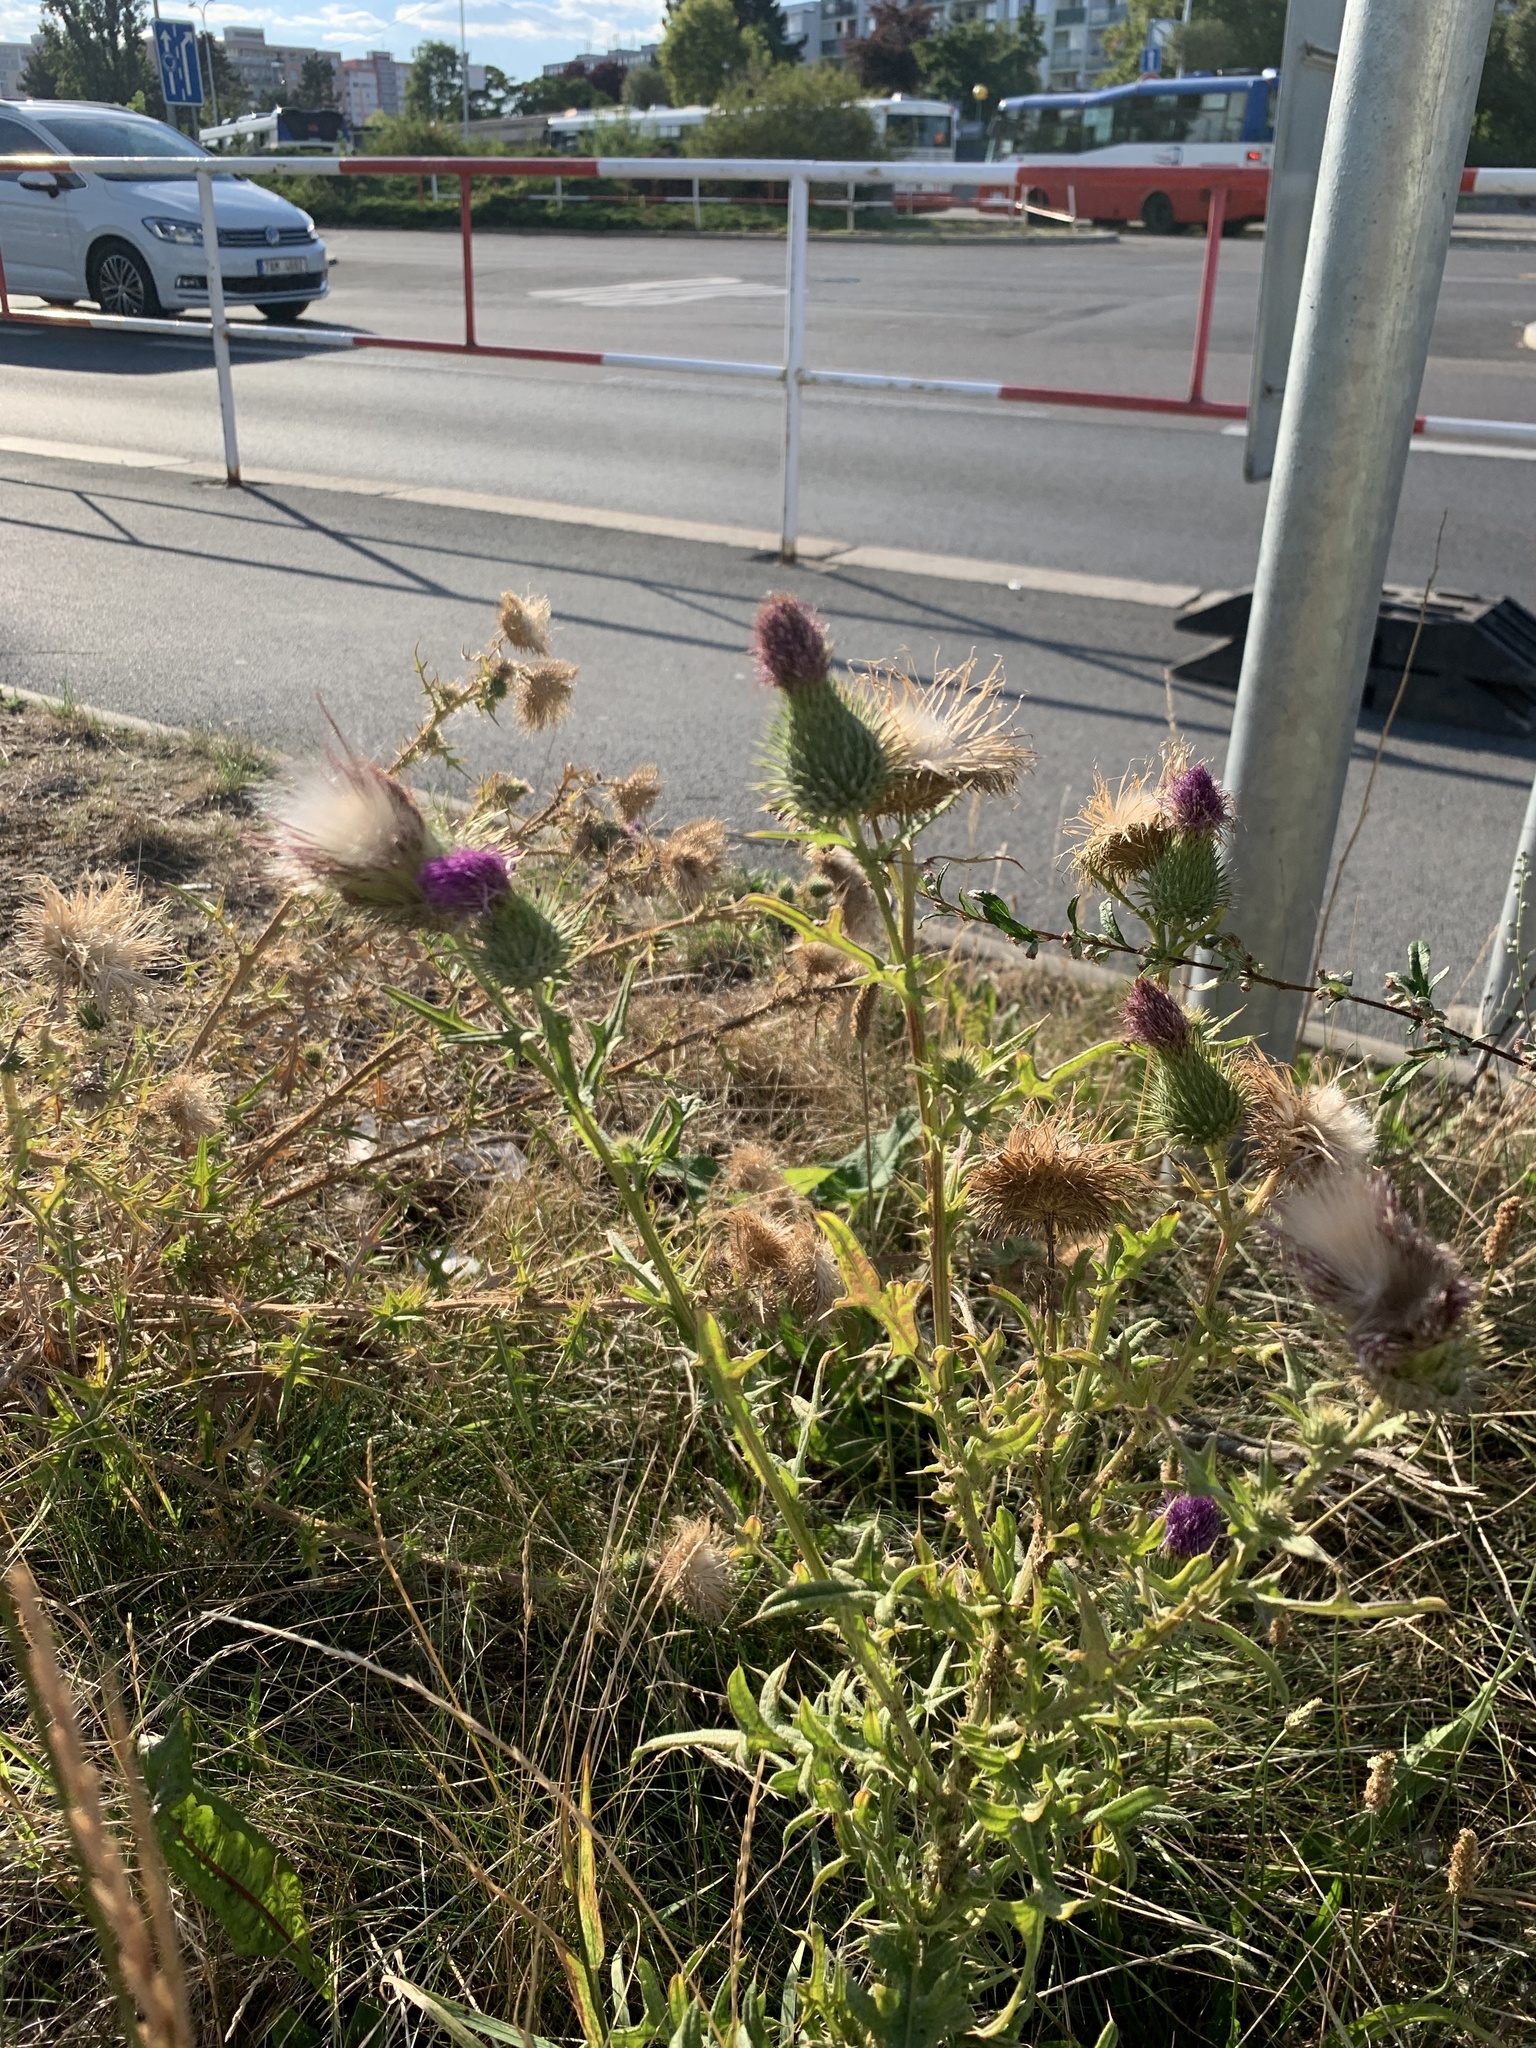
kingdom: Plantae
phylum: Tracheophyta
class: Magnoliopsida
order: Asterales
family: Asteraceae
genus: Cirsium
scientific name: Cirsium vulgare
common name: Bull thistle
